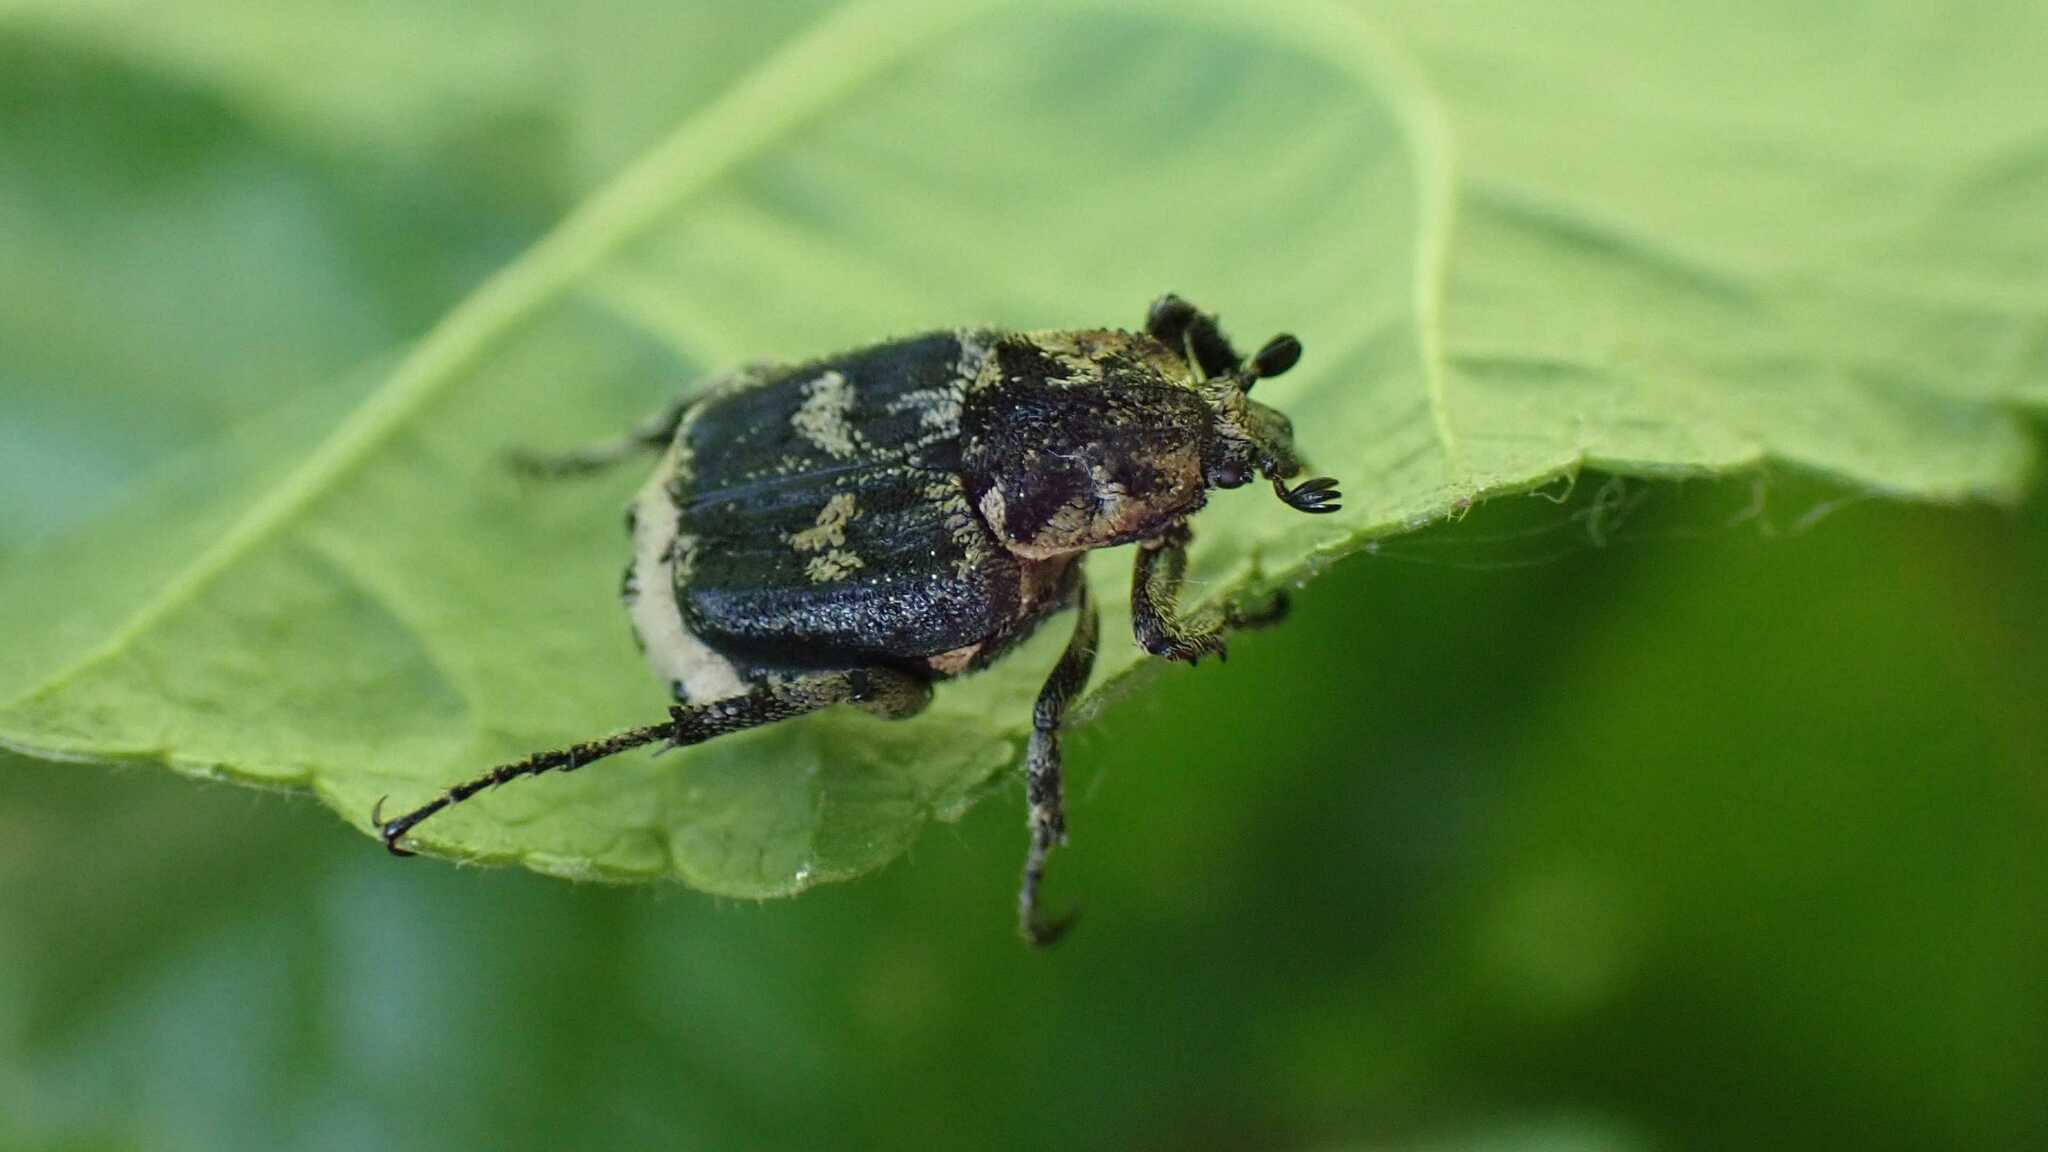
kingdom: Animalia
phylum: Arthropoda
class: Insecta
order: Coleoptera
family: Scarabaeidae
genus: Valgus
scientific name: Valgus hemipterus
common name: Bug flower chafer
